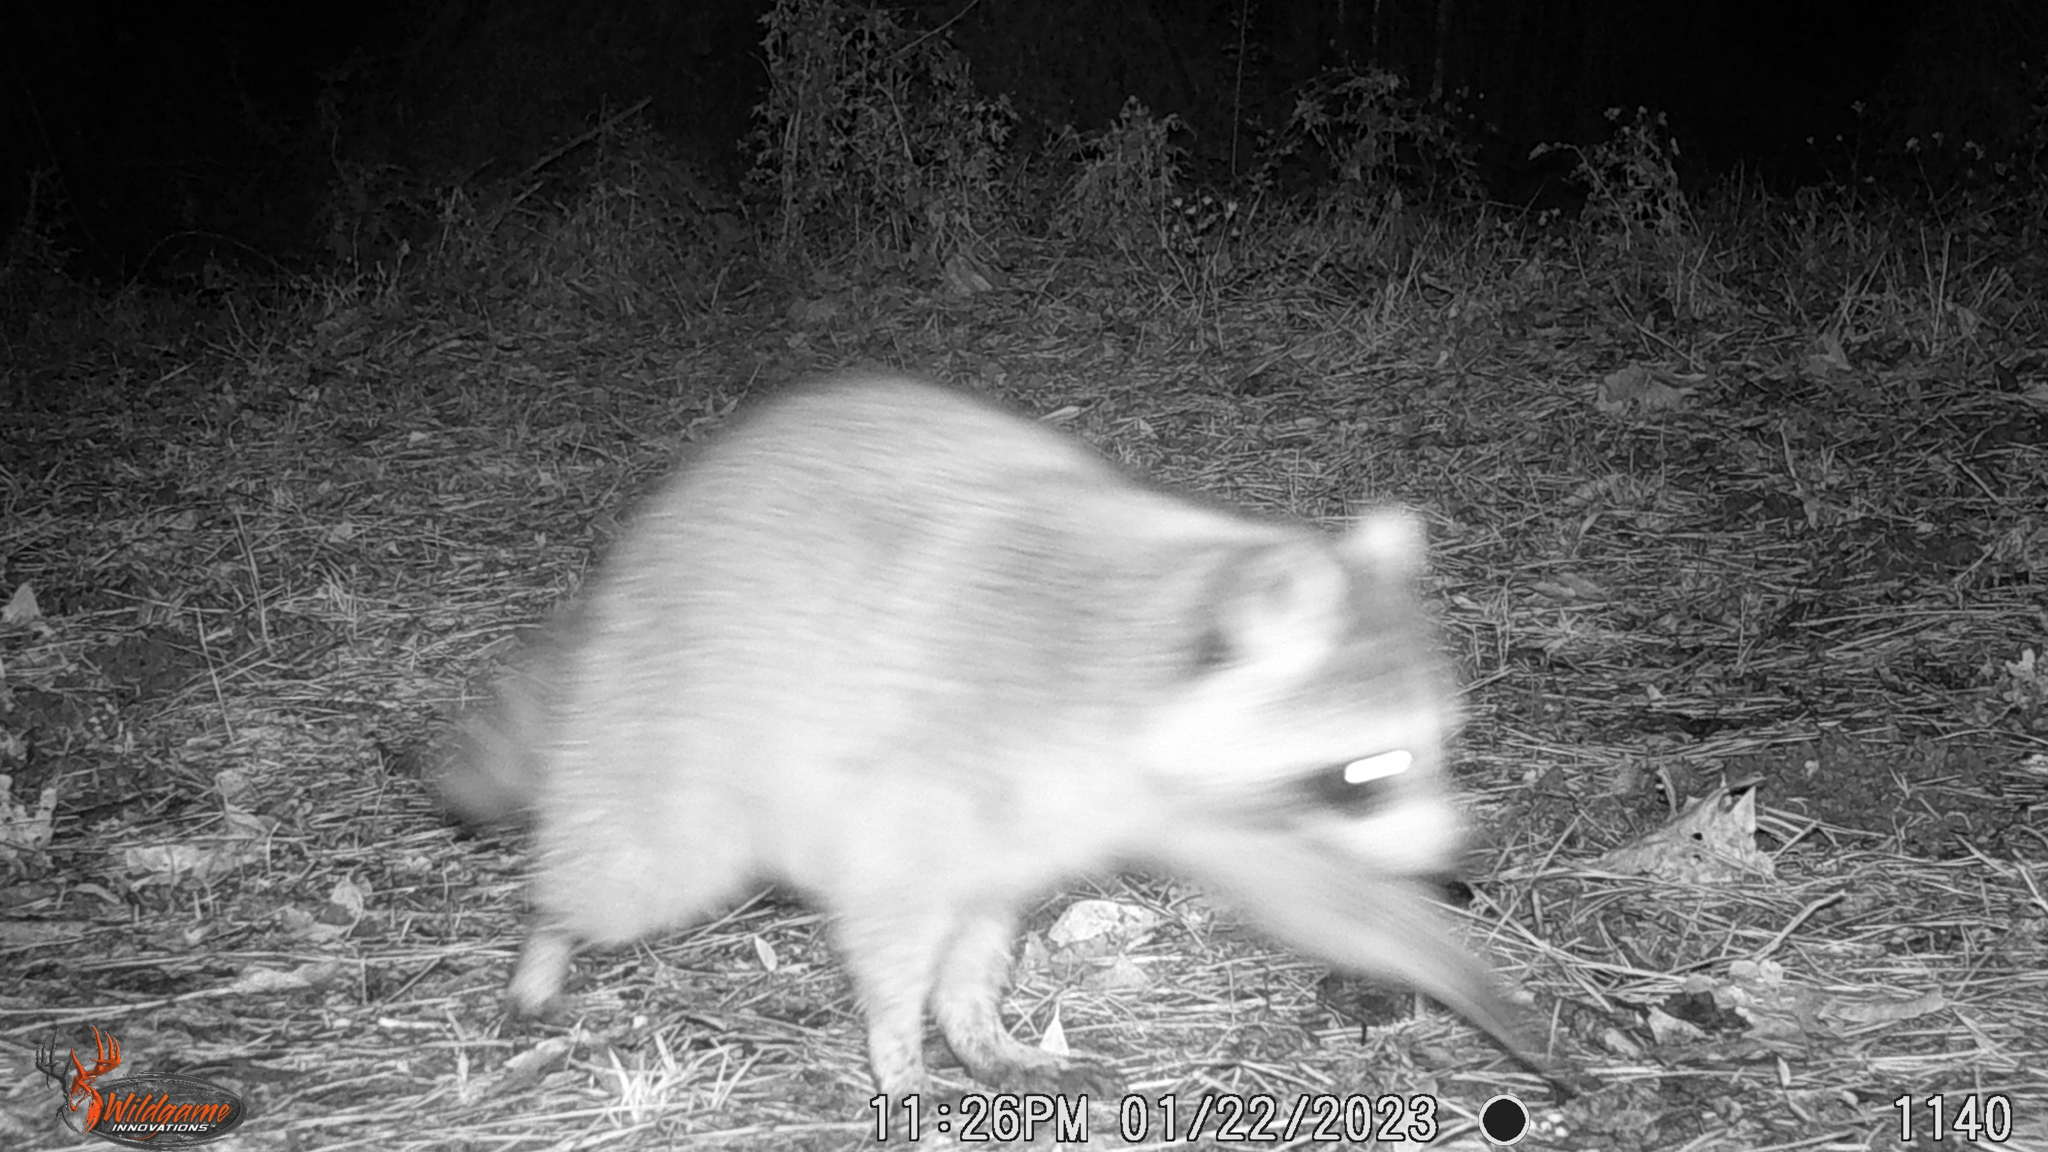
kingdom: Animalia
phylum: Chordata
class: Mammalia
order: Carnivora
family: Procyonidae
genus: Procyon
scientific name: Procyon lotor
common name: Raccoon
